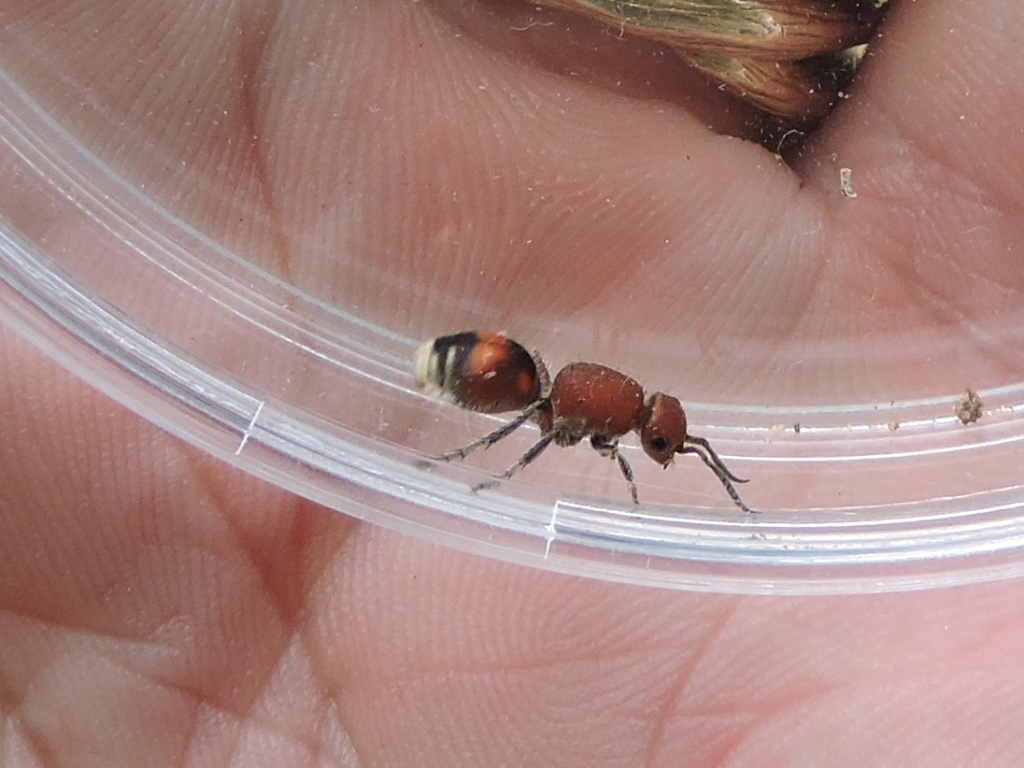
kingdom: Animalia
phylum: Arthropoda
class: Insecta
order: Hymenoptera
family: Mutillidae
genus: Dasymutilla
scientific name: Dasymutilla
